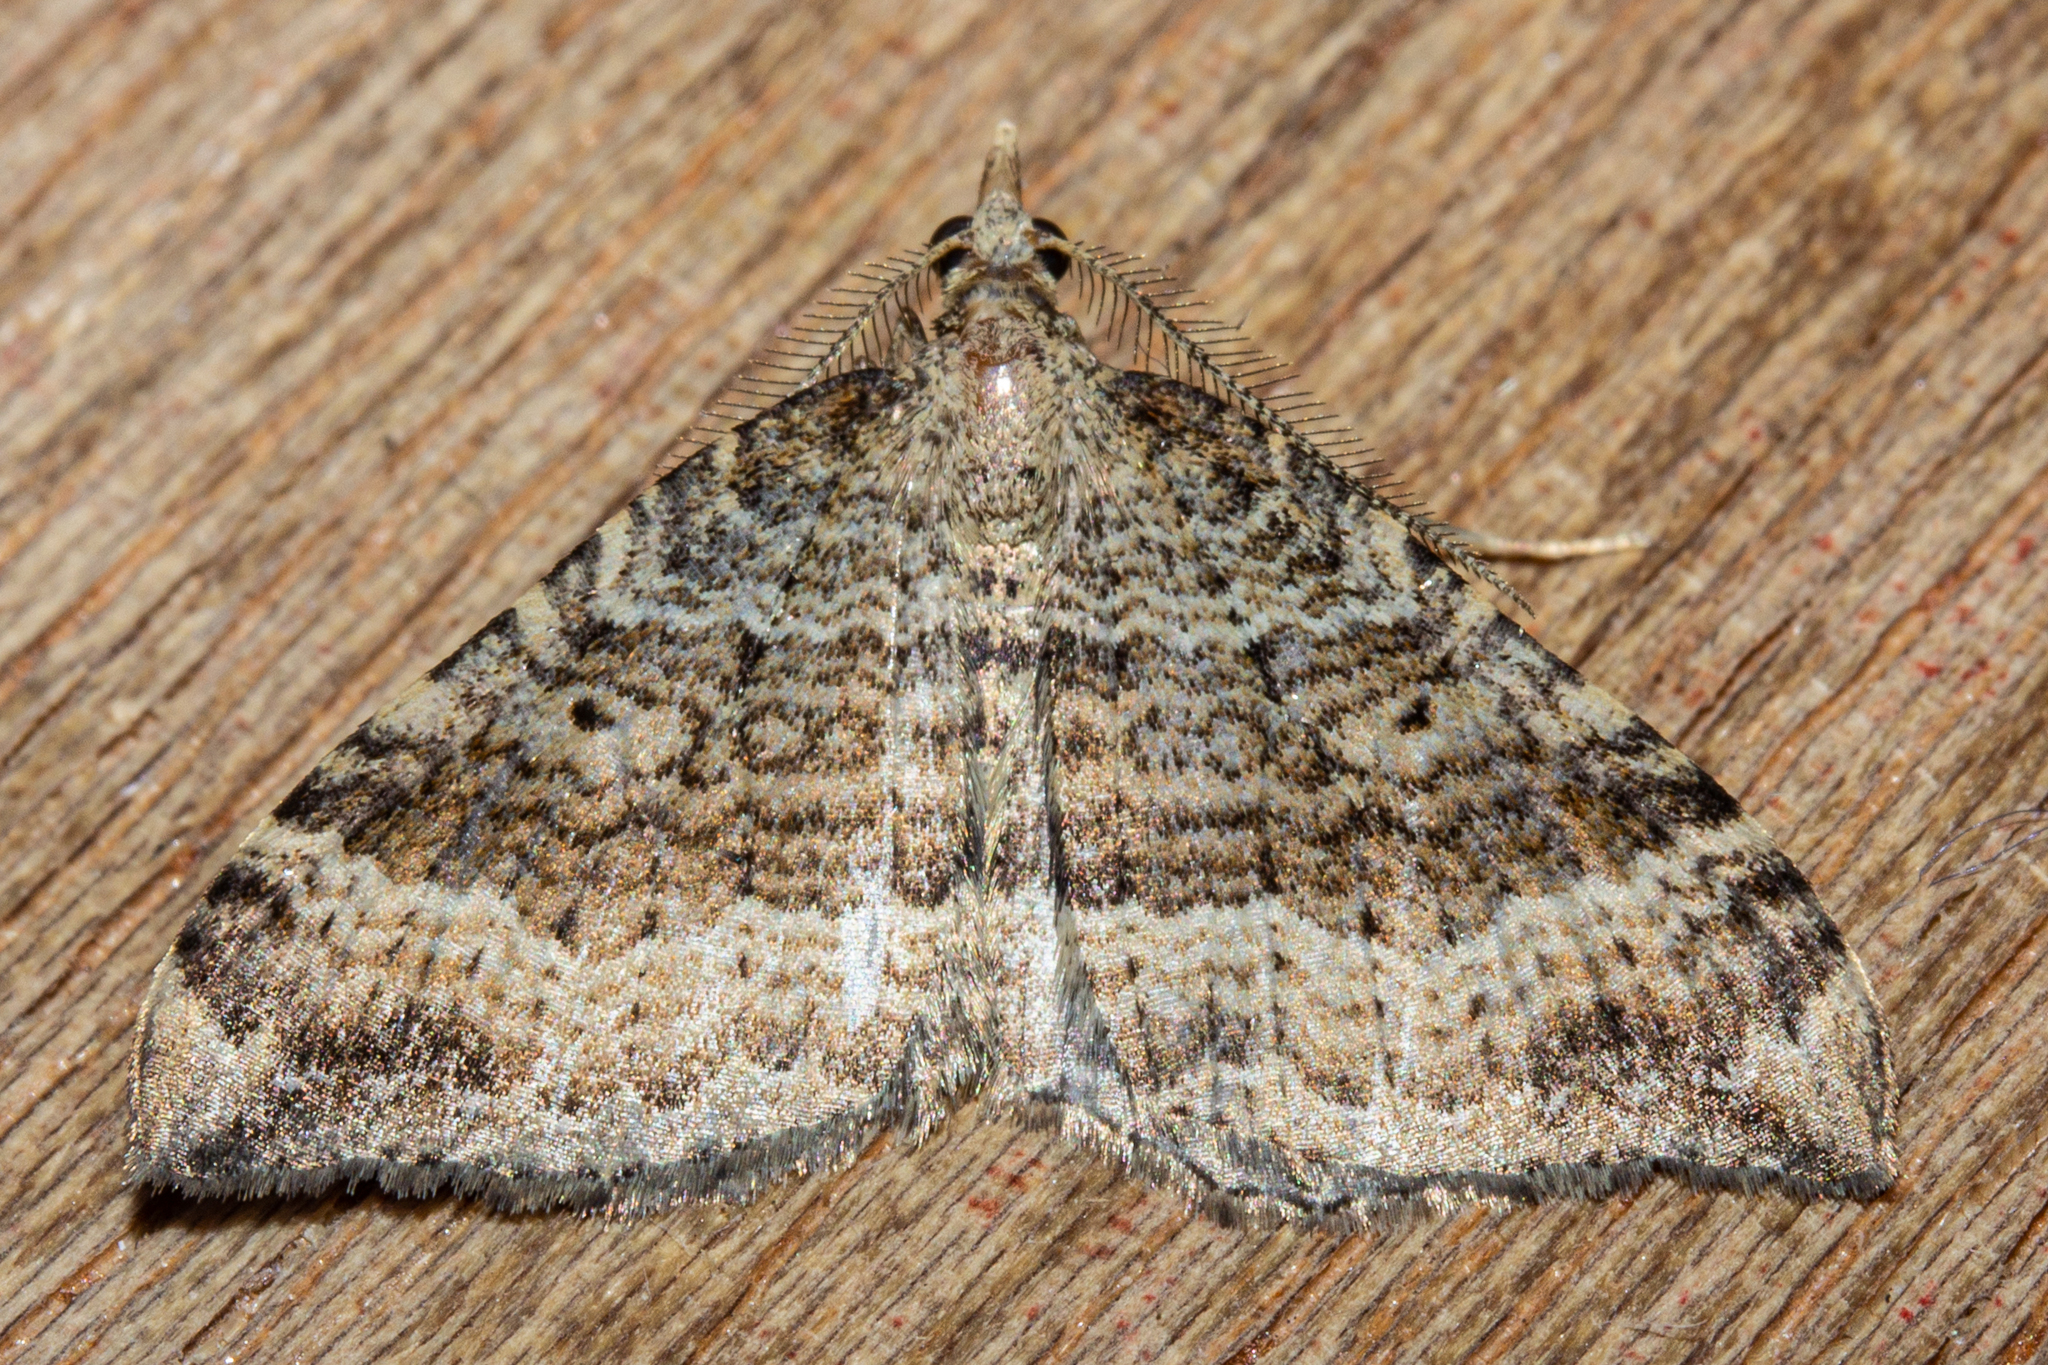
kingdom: Animalia
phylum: Arthropoda
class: Insecta
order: Lepidoptera
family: Geometridae
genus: Homodotis
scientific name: Homodotis falcata
